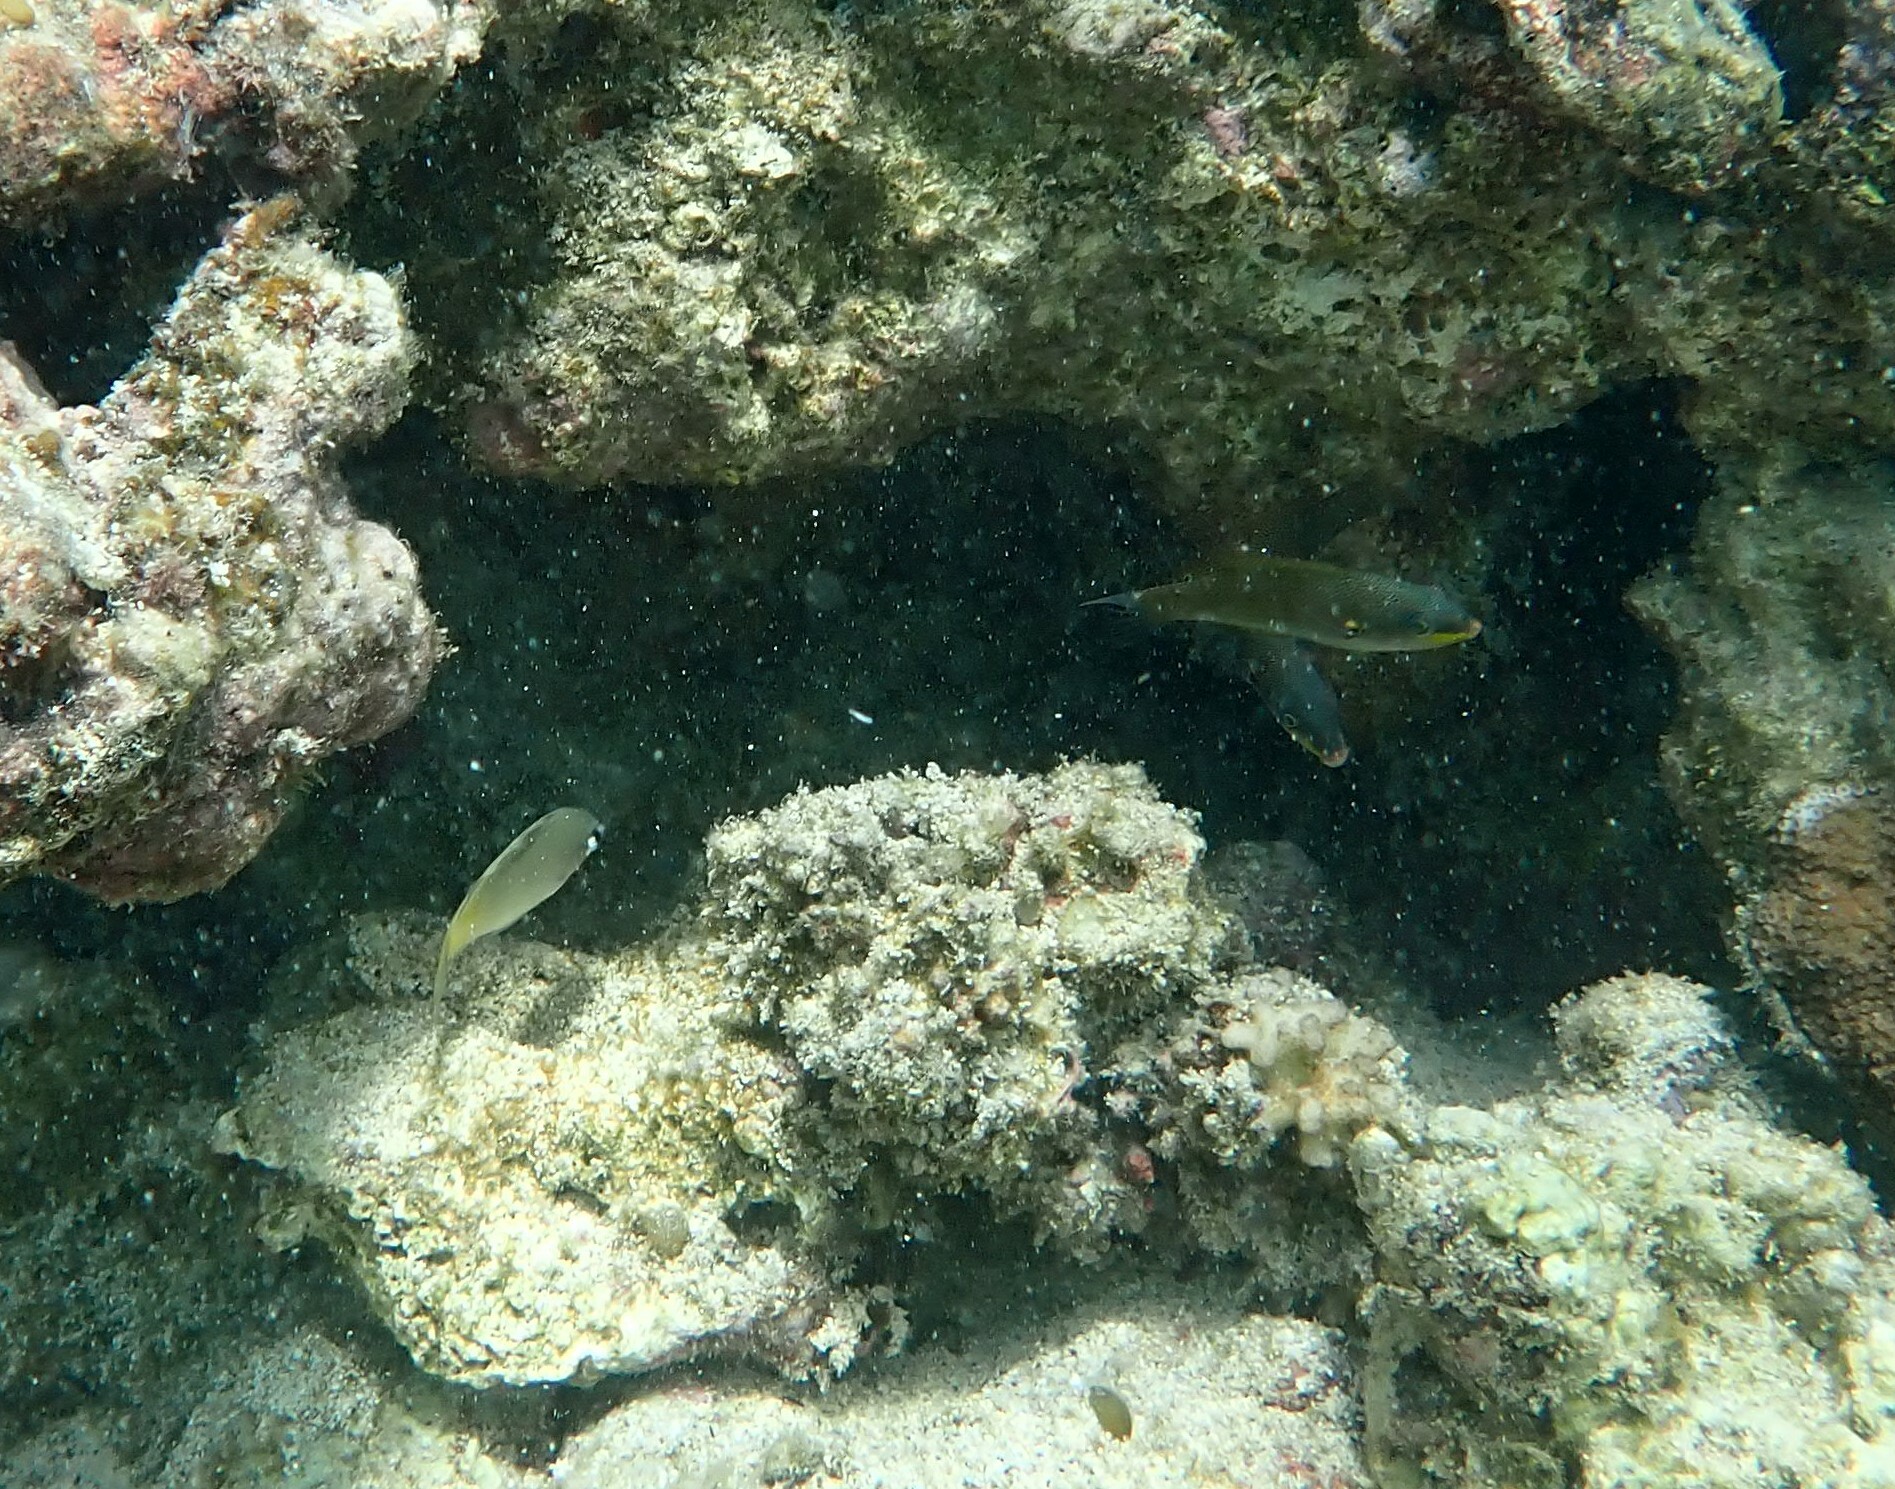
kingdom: Animalia
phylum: Chordata
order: Perciformes
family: Labridae
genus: Stethojulis
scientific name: Stethojulis balteata
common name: Belted wrasse
